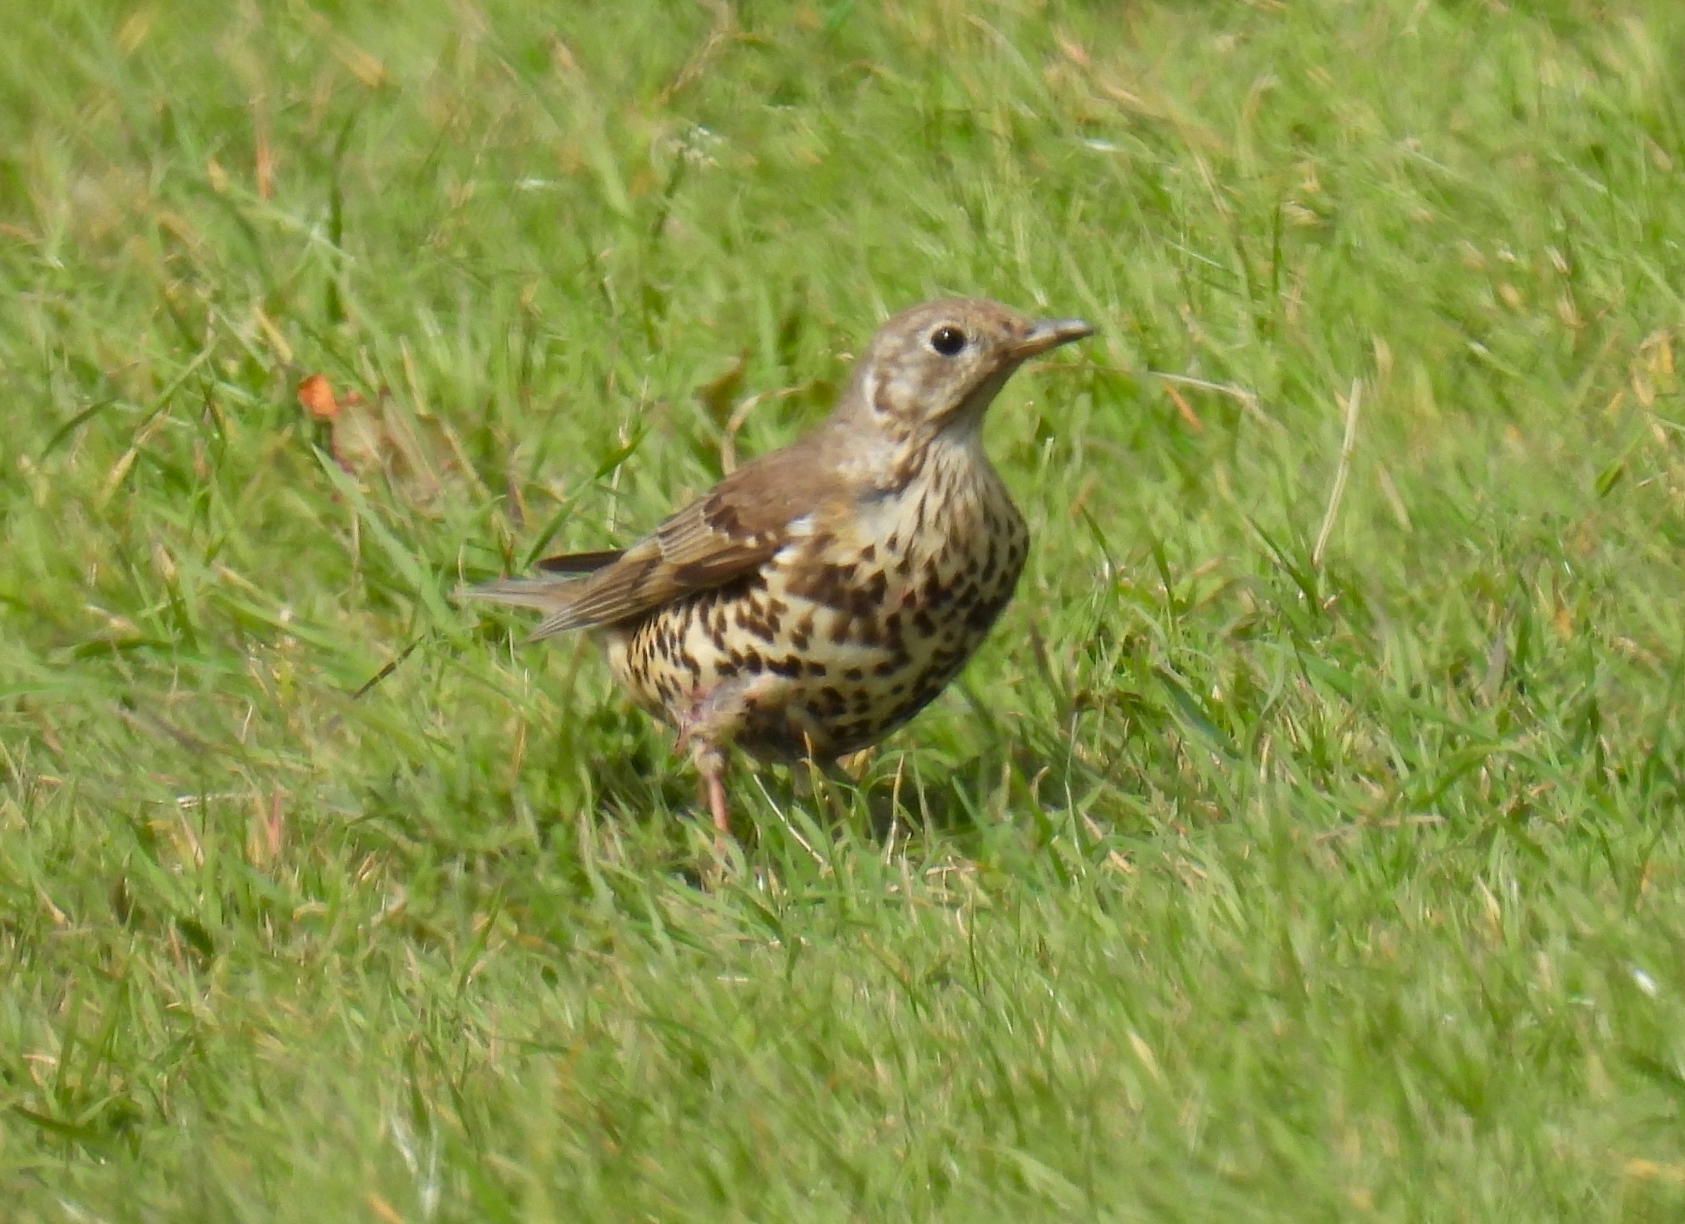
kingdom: Animalia
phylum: Chordata
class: Aves
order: Passeriformes
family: Turdidae
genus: Turdus
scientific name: Turdus viscivorus
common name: Mistle thrush
